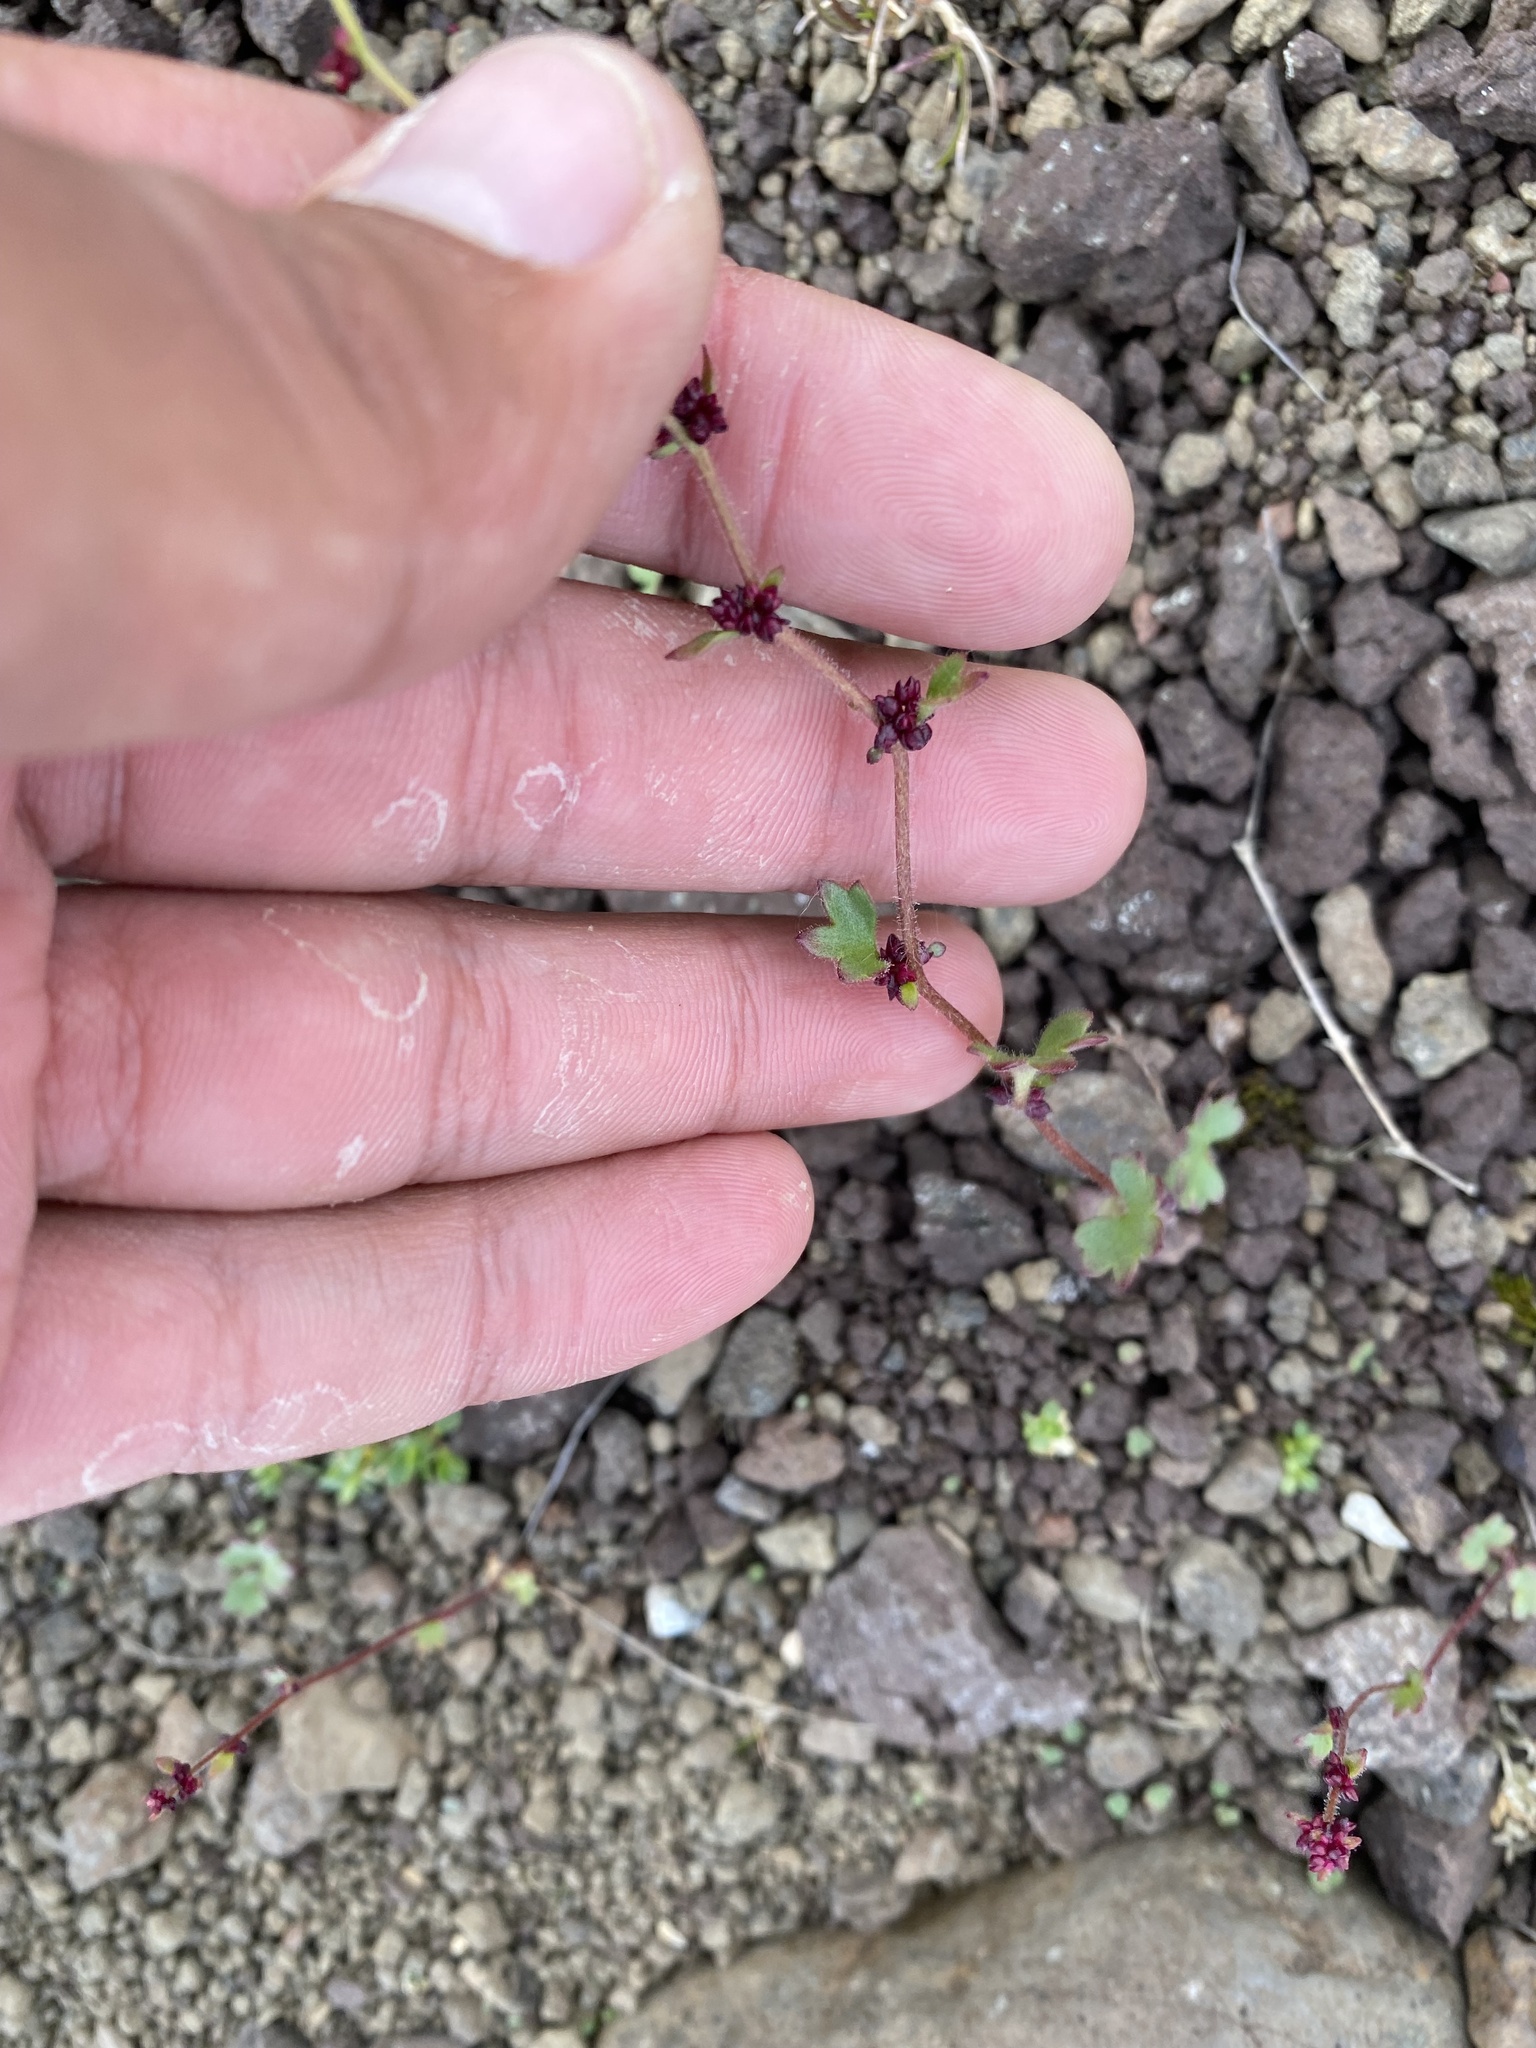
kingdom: Plantae
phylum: Tracheophyta
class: Magnoliopsida
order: Saxifragales
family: Saxifragaceae
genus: Saxifraga
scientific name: Saxifraga cernua
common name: Drooping saxifrage
